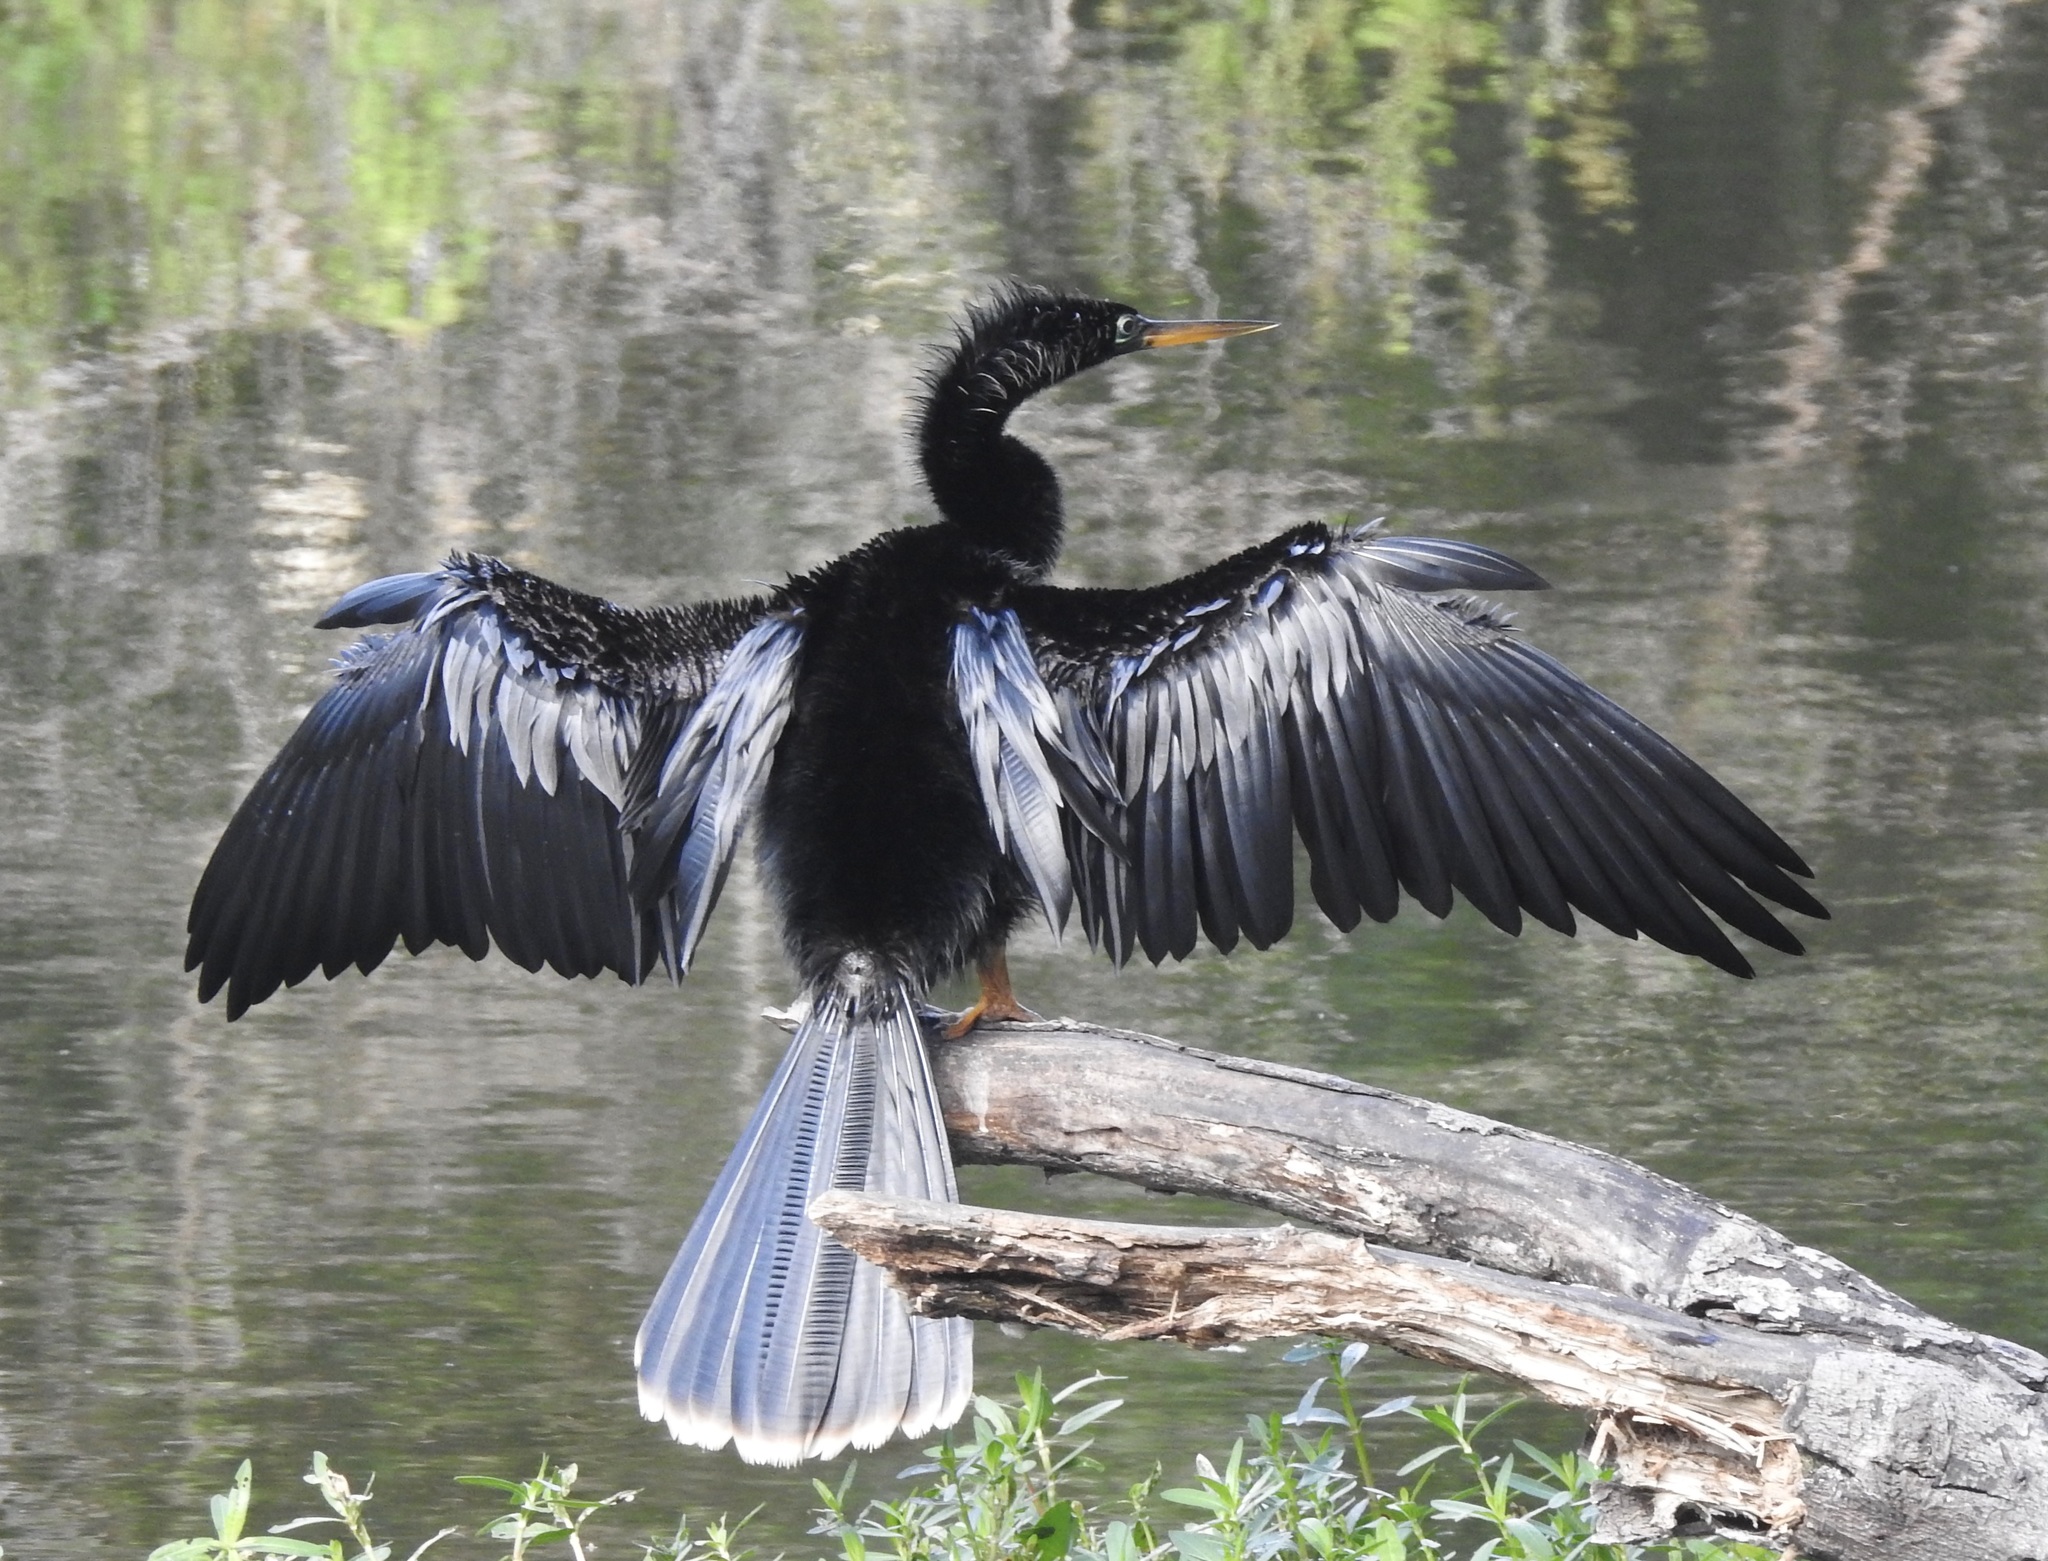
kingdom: Animalia
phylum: Chordata
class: Aves
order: Suliformes
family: Anhingidae
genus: Anhinga
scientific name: Anhinga anhinga
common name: Anhinga
